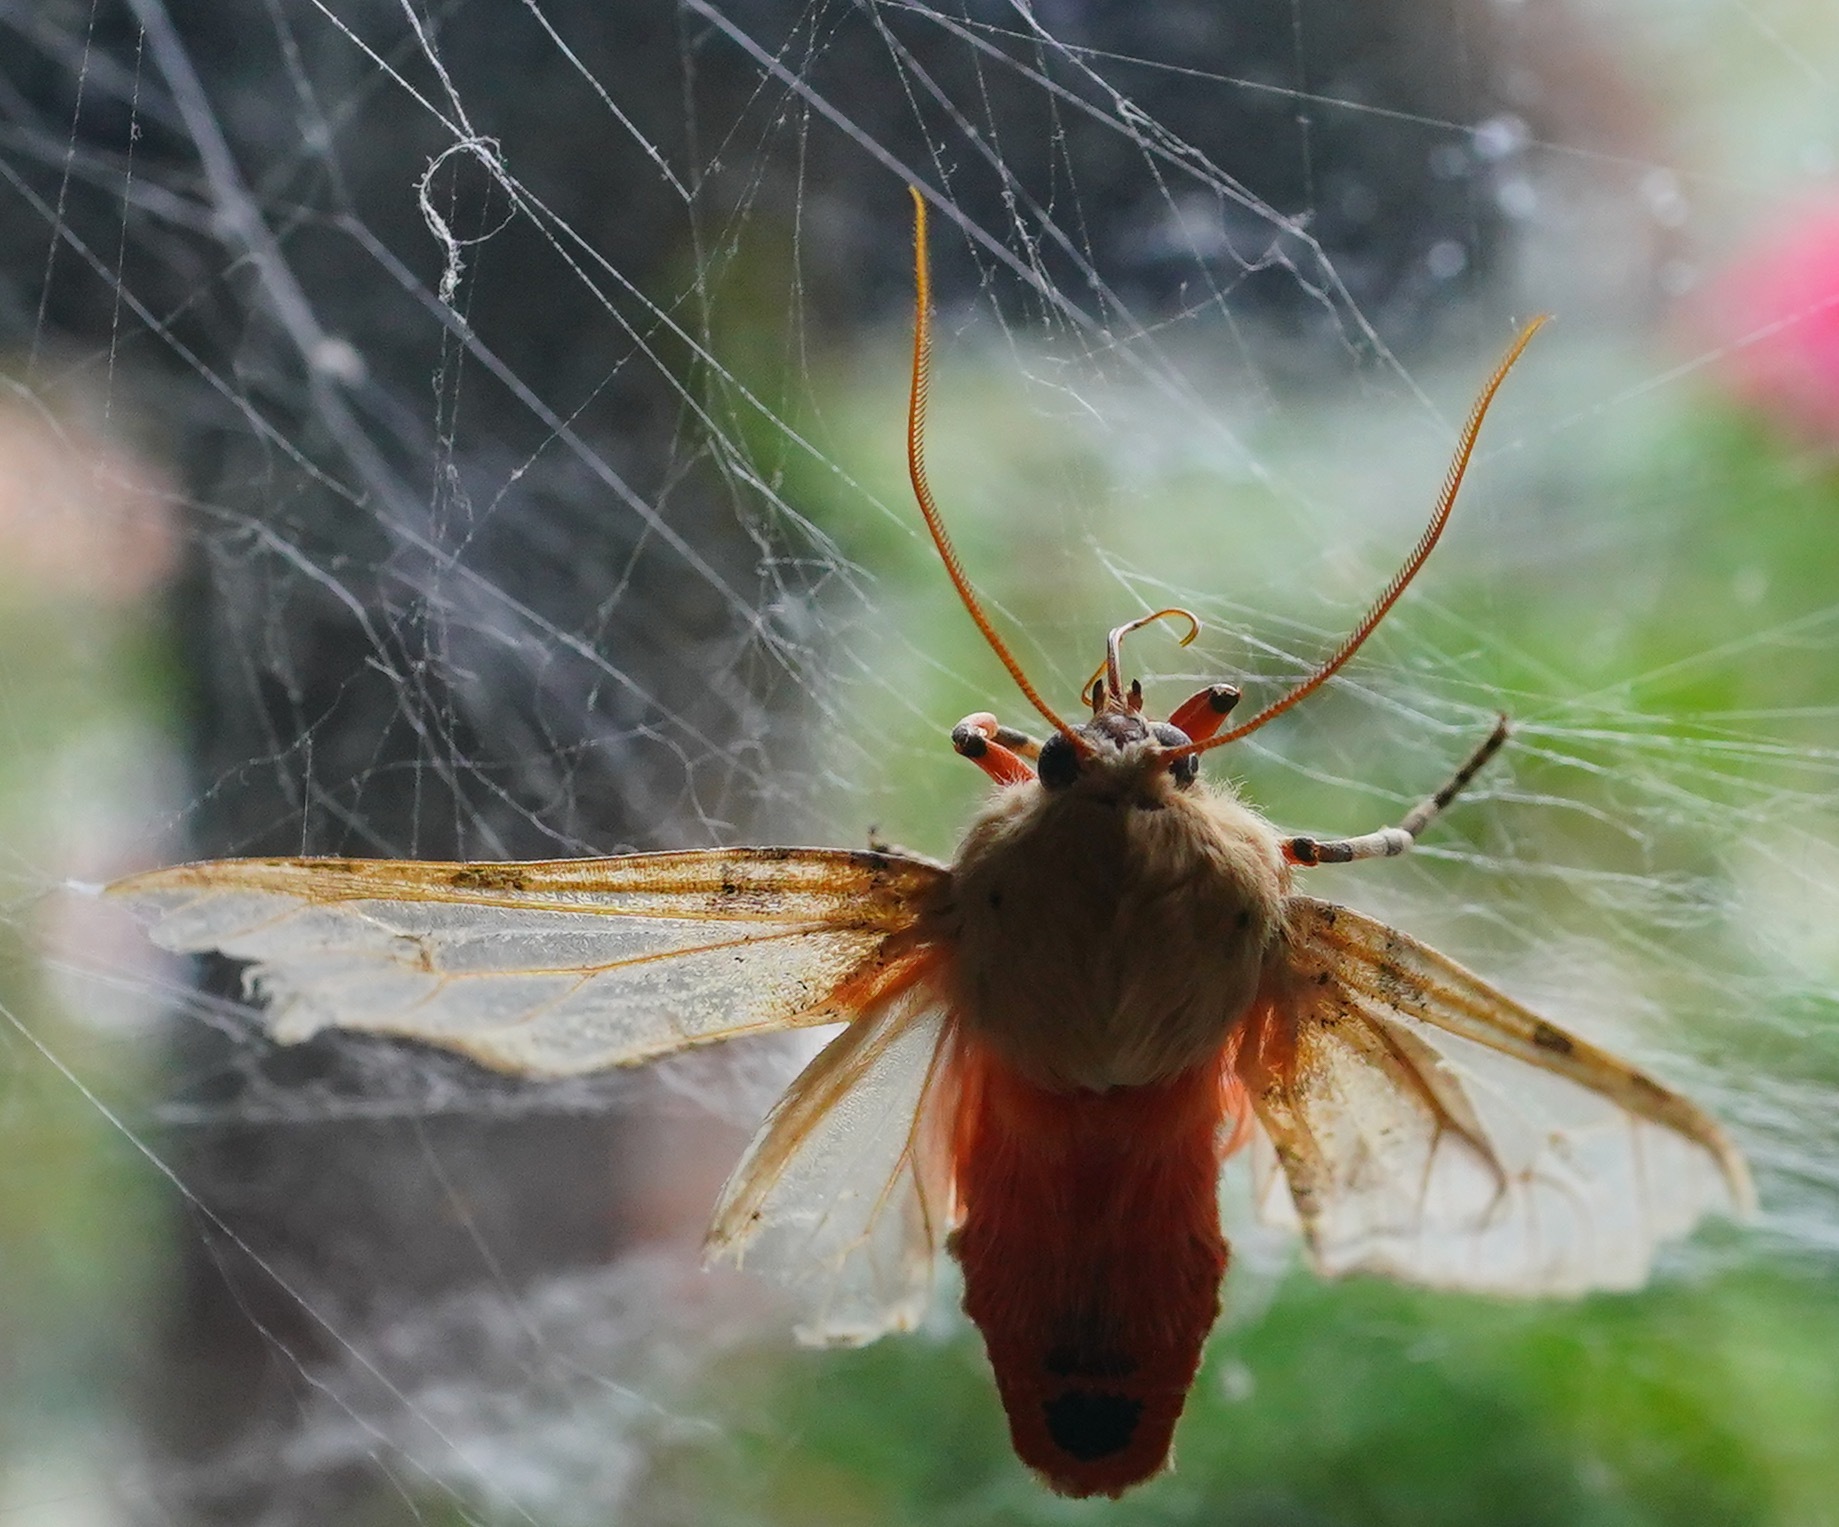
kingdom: Animalia
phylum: Arthropoda
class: Insecta
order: Lepidoptera
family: Erebidae
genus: Hemihyalea
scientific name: Hemihyalea edwardsii
